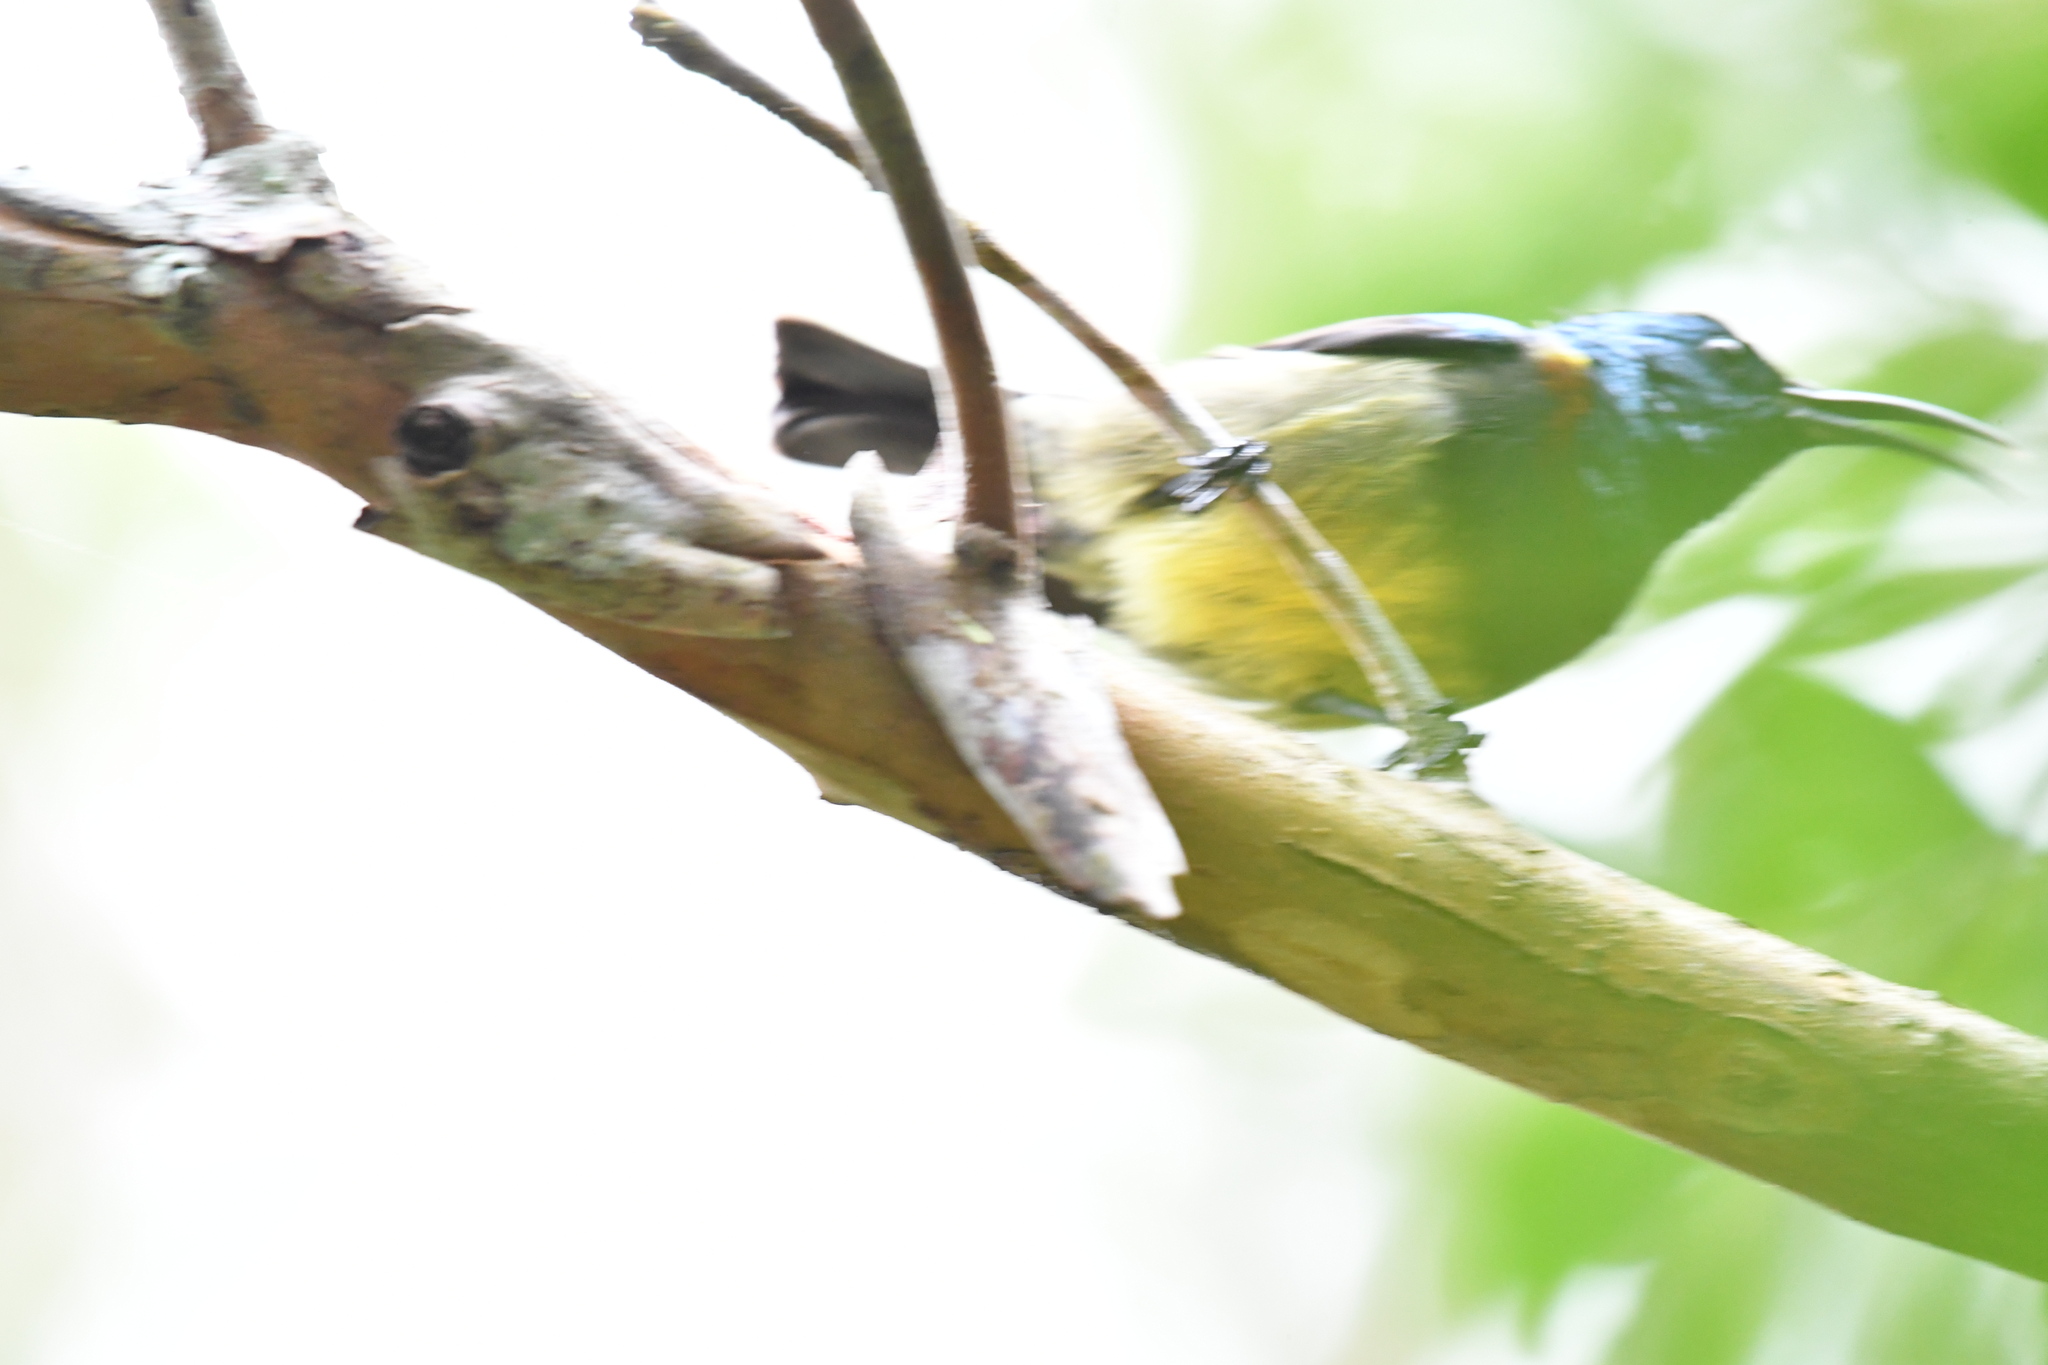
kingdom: Animalia
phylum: Chordata
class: Aves
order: Passeriformes
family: Nectariniidae
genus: Cinnyris
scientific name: Cinnyris sovimanga
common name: Souimanga sunbird
